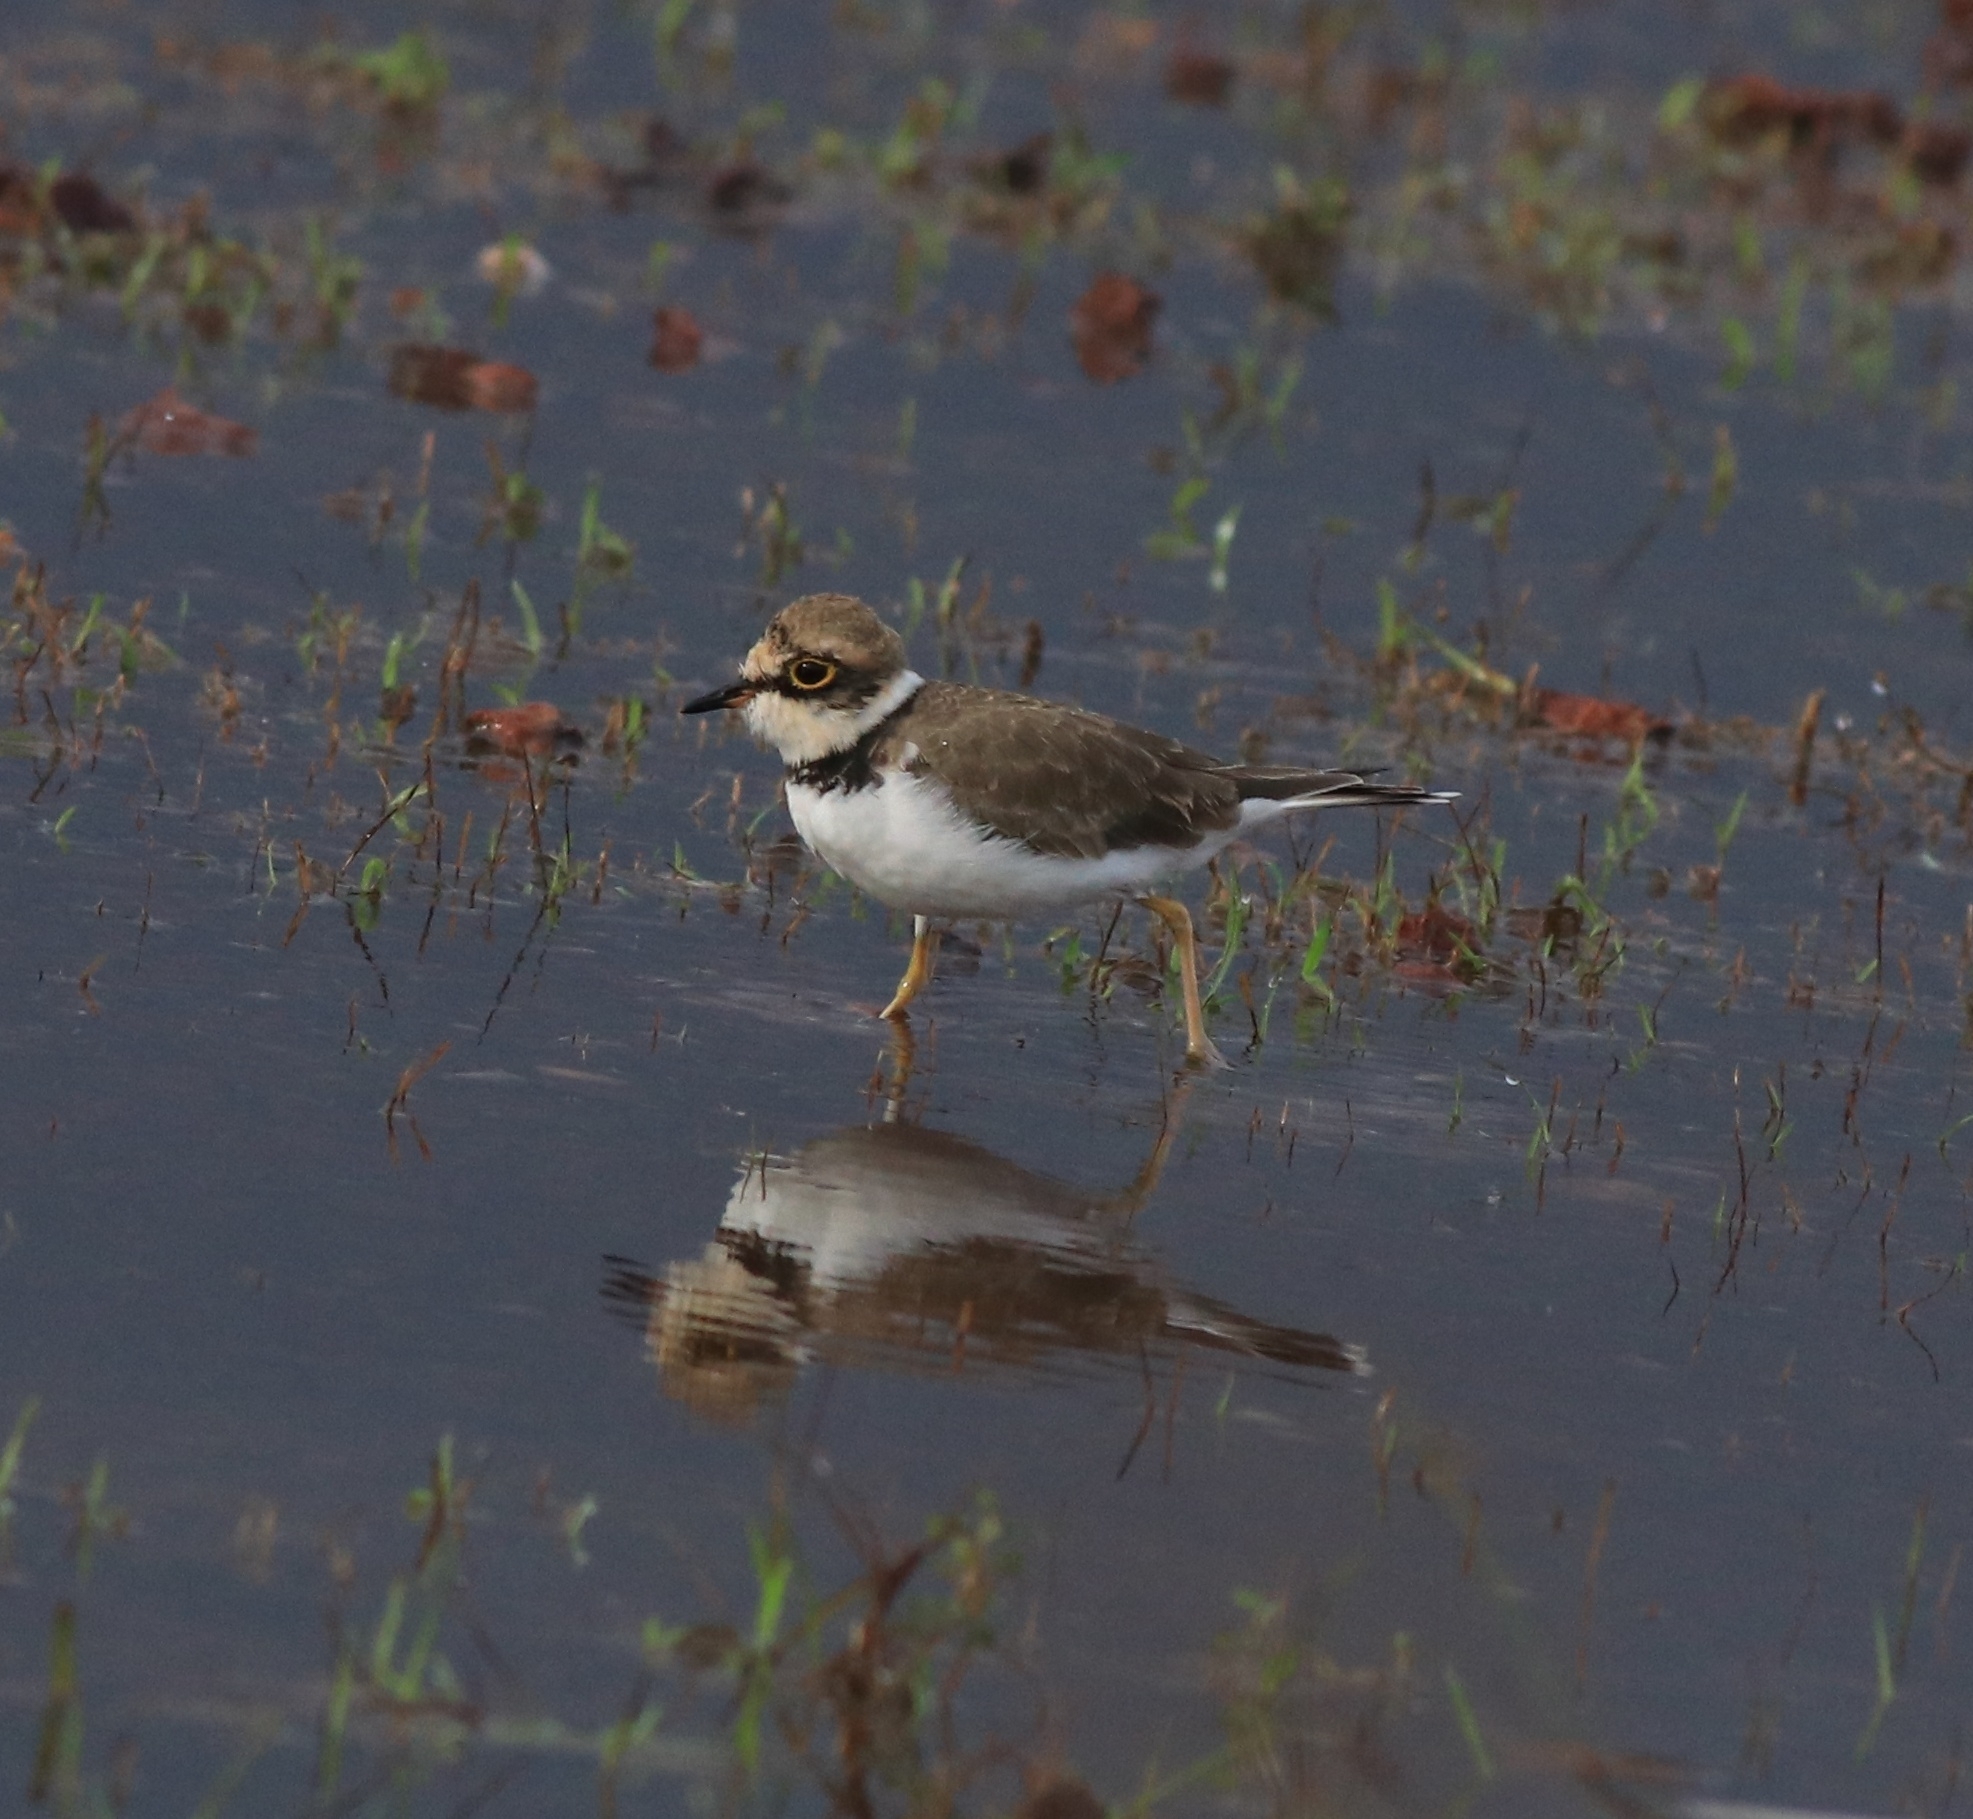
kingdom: Animalia
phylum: Chordata
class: Aves
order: Charadriiformes
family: Charadriidae
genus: Charadrius
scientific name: Charadrius dubius
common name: Little ringed plover
